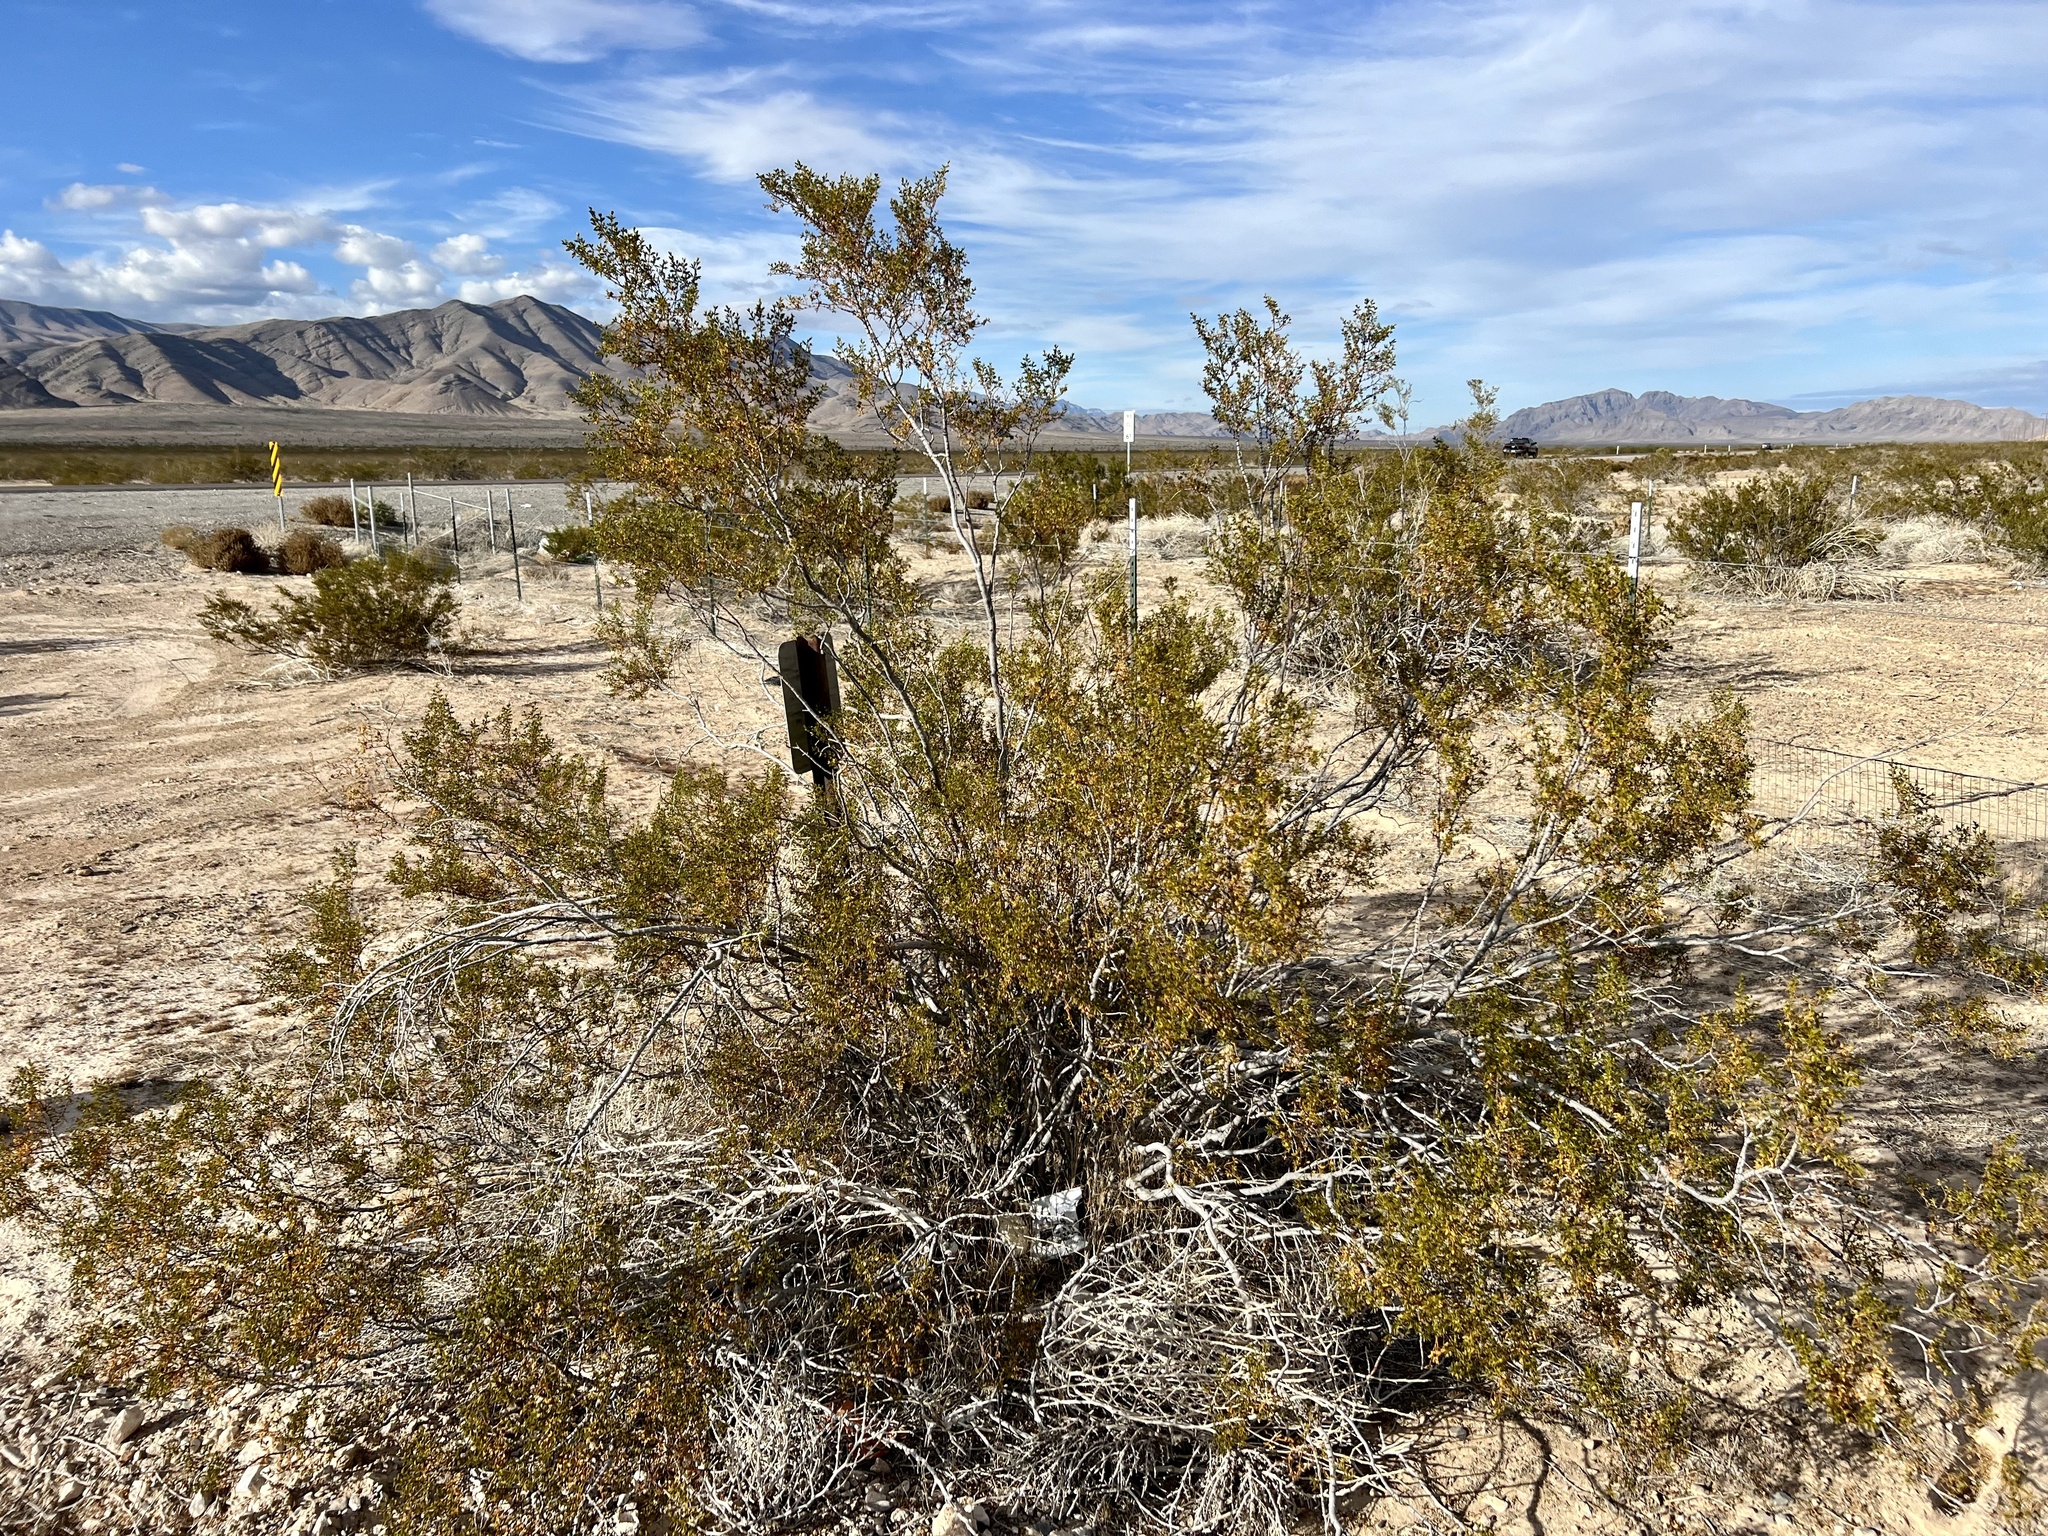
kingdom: Plantae
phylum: Tracheophyta
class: Magnoliopsida
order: Zygophyllales
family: Zygophyllaceae
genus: Larrea
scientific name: Larrea tridentata
